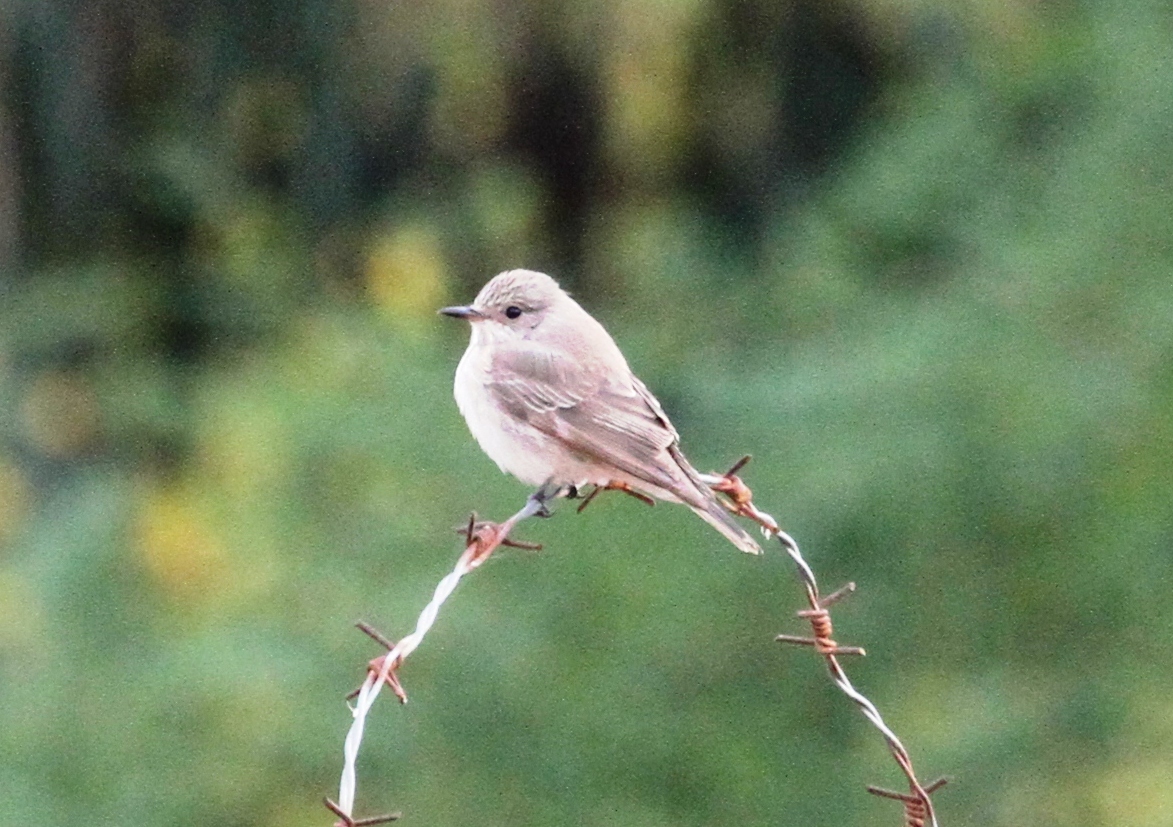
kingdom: Animalia
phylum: Chordata
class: Aves
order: Passeriformes
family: Muscicapidae
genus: Muscicapa
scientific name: Muscicapa striata
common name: Spotted flycatcher
